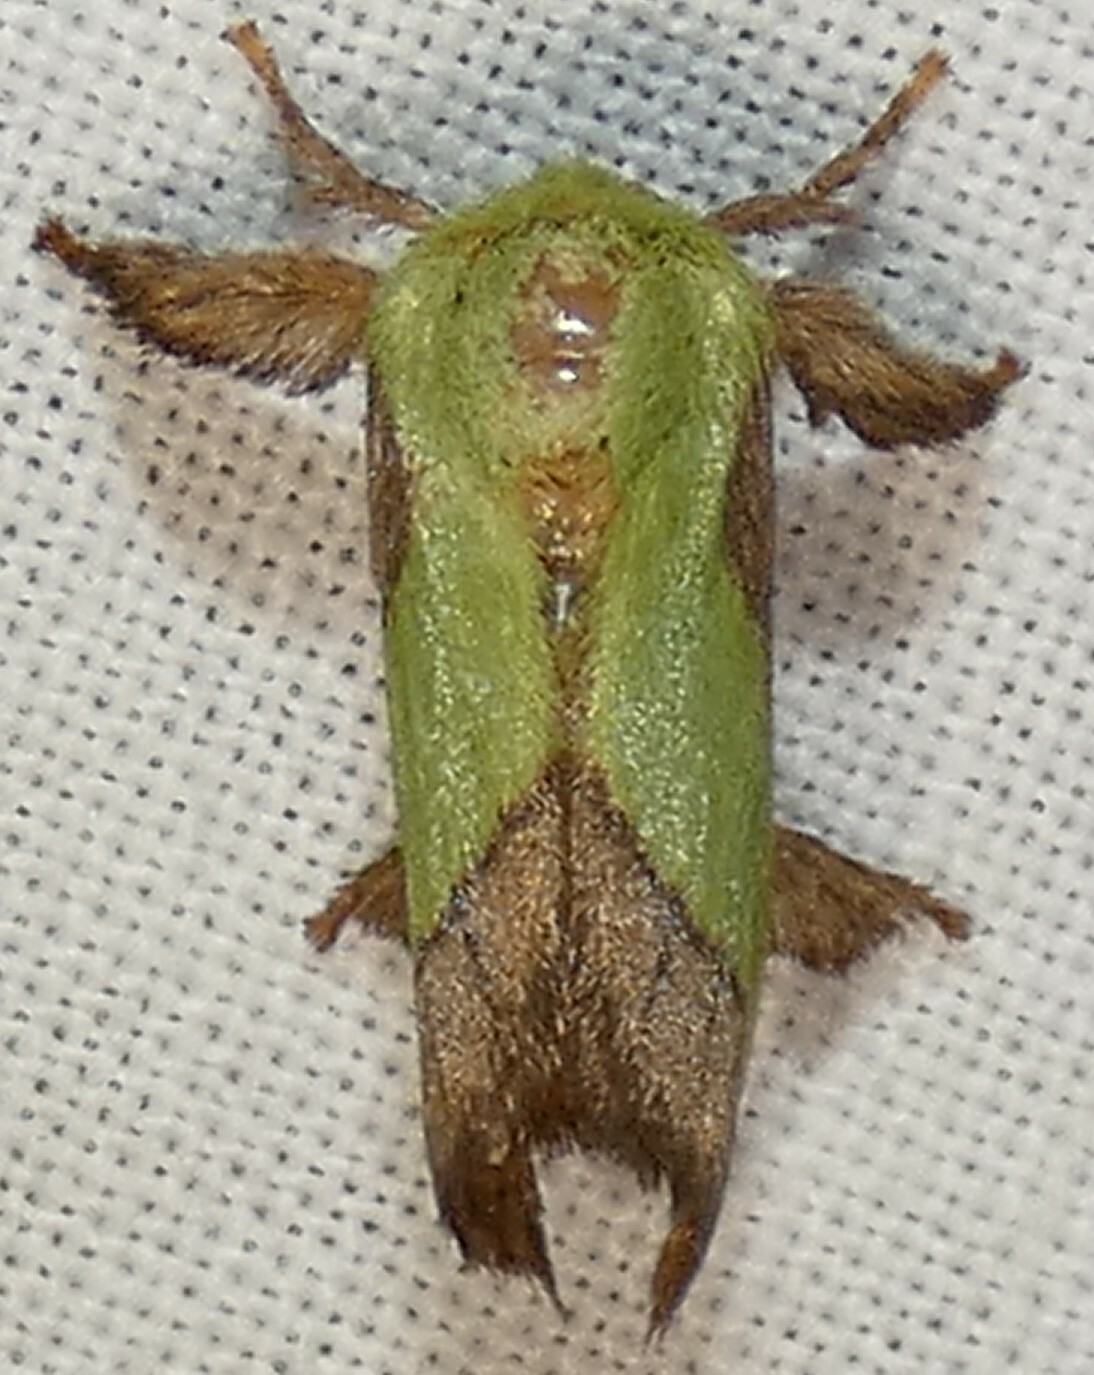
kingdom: Animalia
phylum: Arthropoda
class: Insecta
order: Lepidoptera
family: Limacodidae
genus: Parasa
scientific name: Parasa chloris
